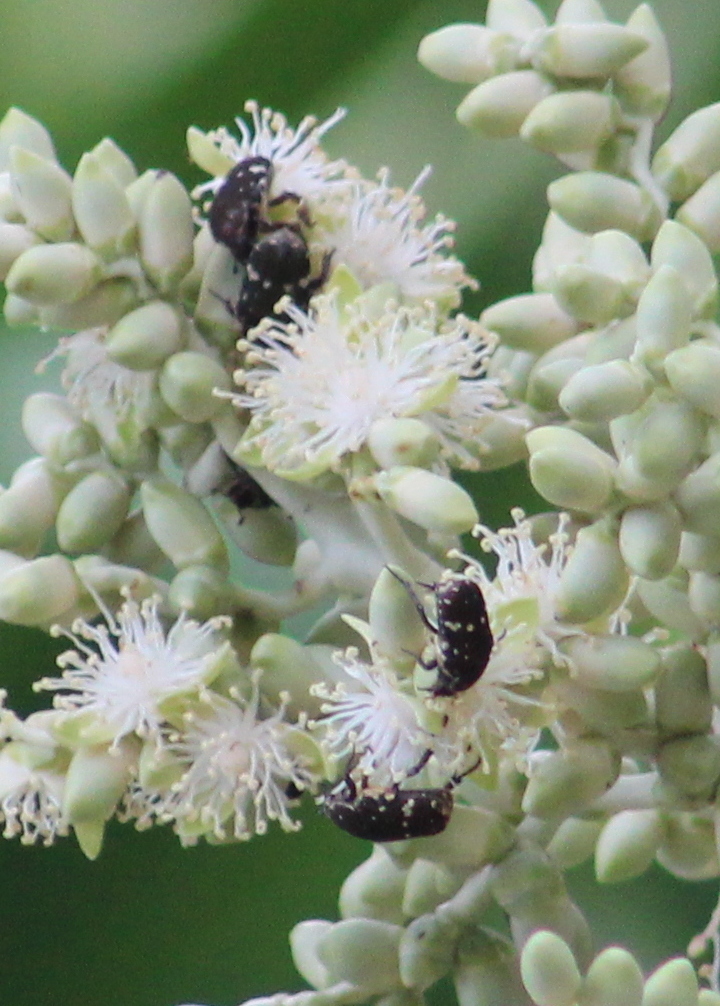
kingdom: Animalia
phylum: Arthropoda
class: Insecta
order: Coleoptera
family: Scarabaeidae
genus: Glycyphana
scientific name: Glycyphana stolata
